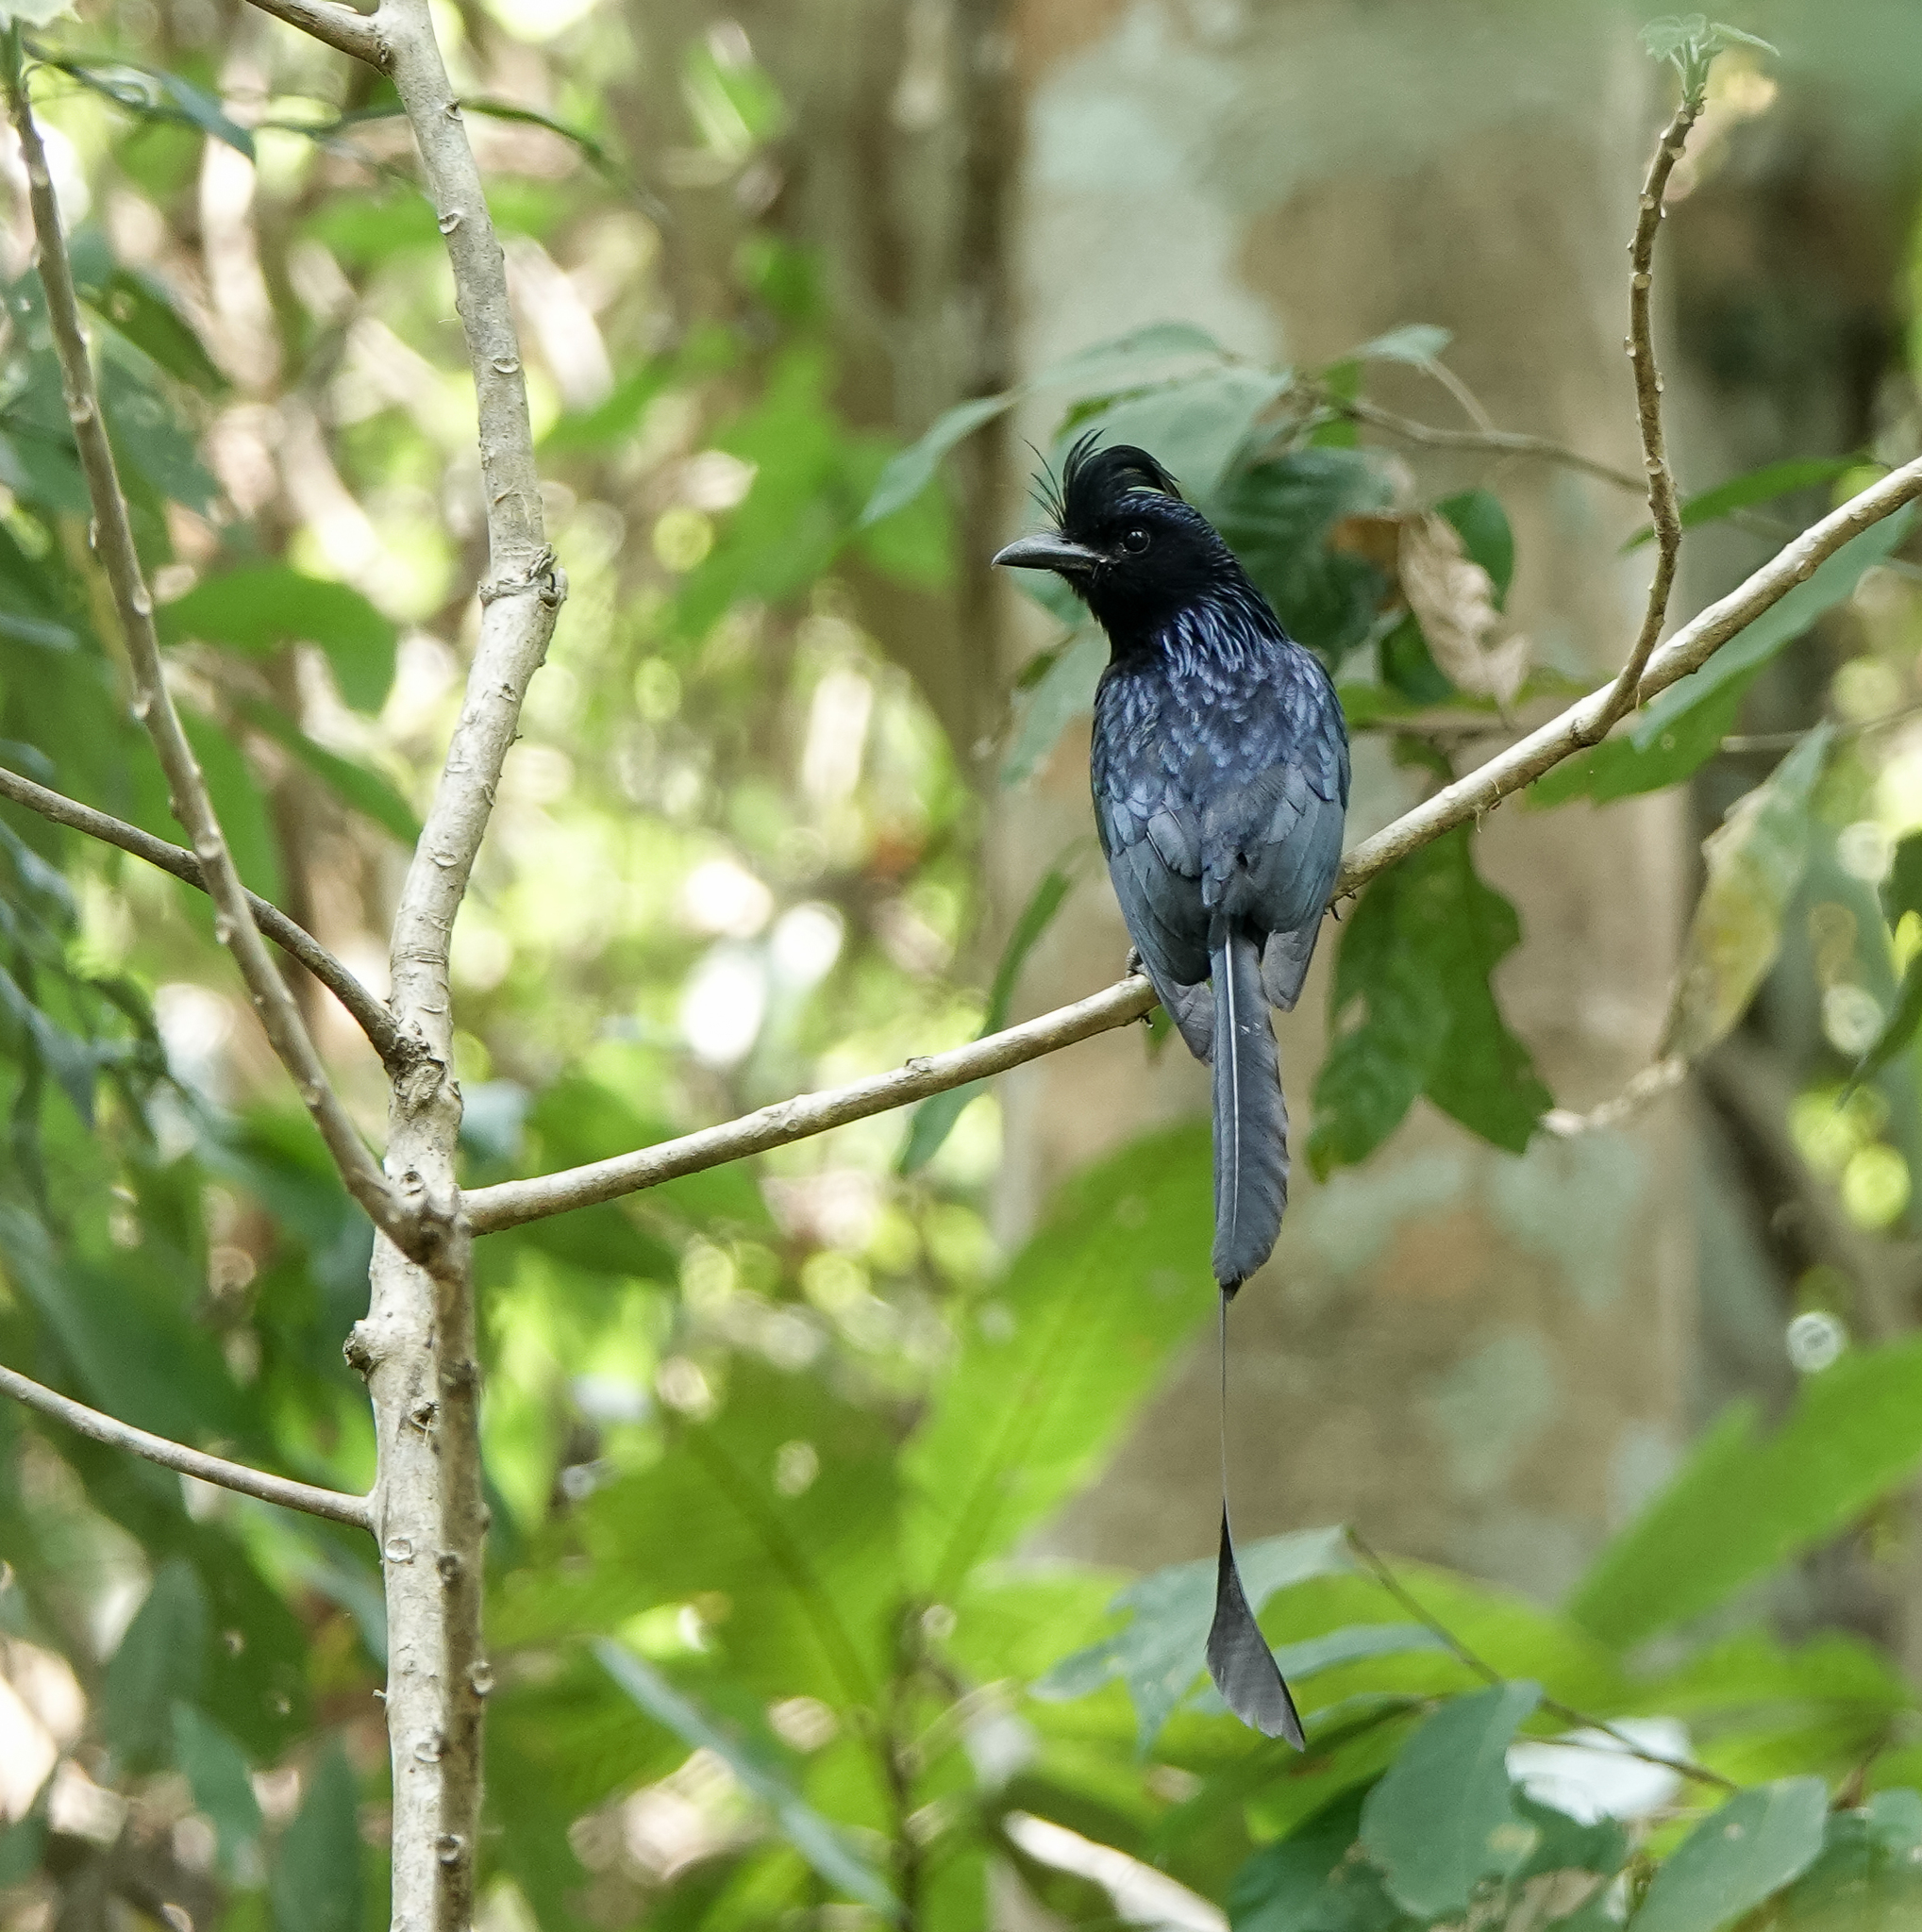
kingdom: Animalia
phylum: Chordata
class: Aves
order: Passeriformes
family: Dicruridae
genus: Dicrurus
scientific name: Dicrurus paradiseus
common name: Greater racket-tailed drongo
